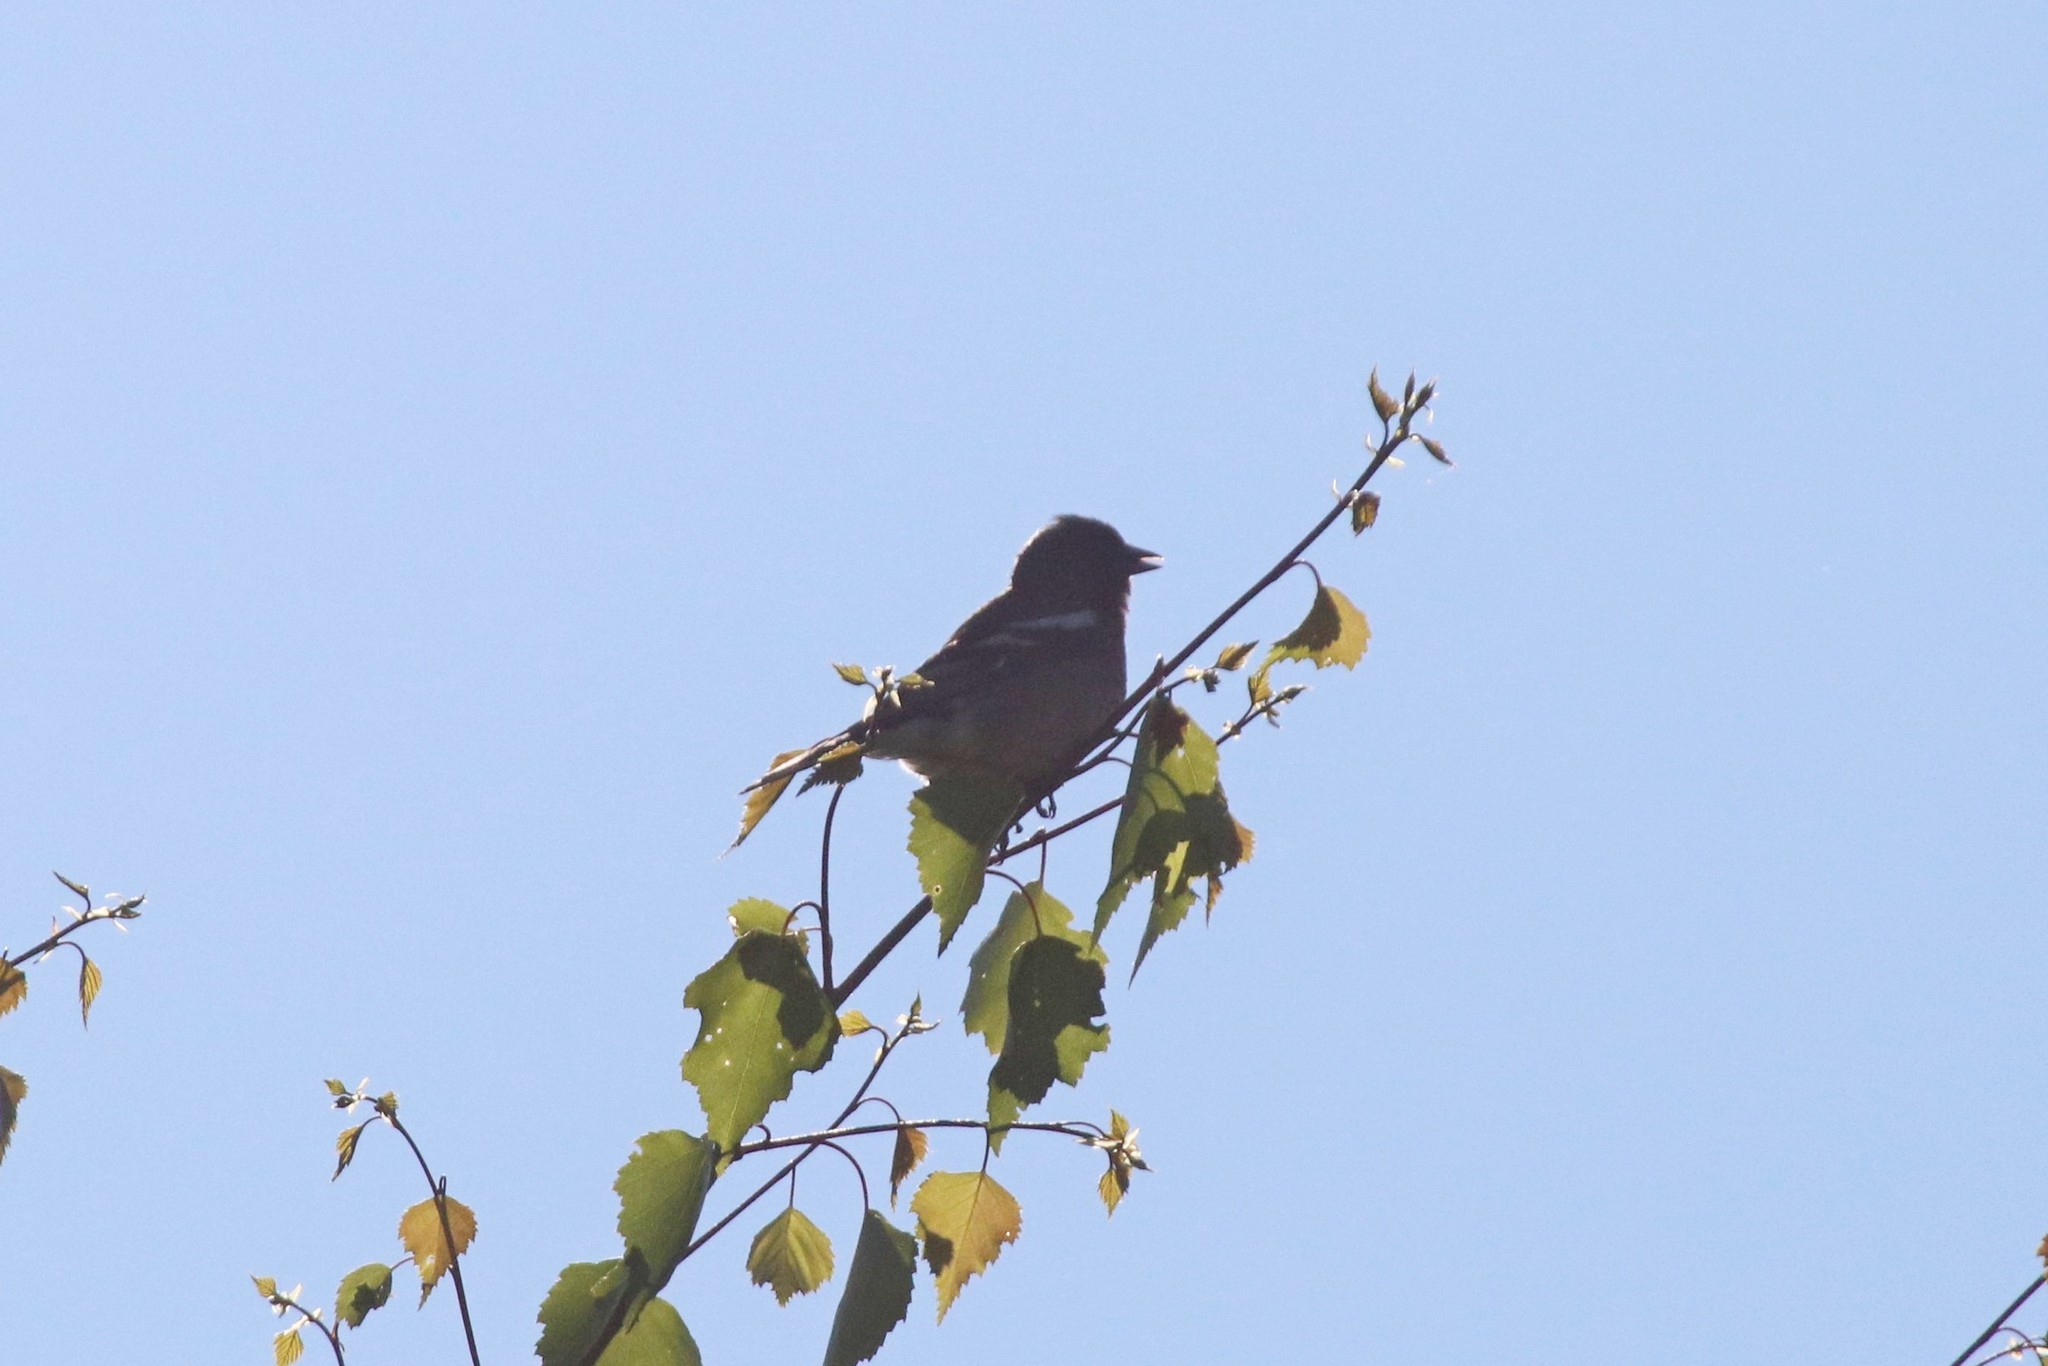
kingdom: Animalia
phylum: Chordata
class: Aves
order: Passeriformes
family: Fringillidae
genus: Fringilla
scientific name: Fringilla coelebs
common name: Common chaffinch
